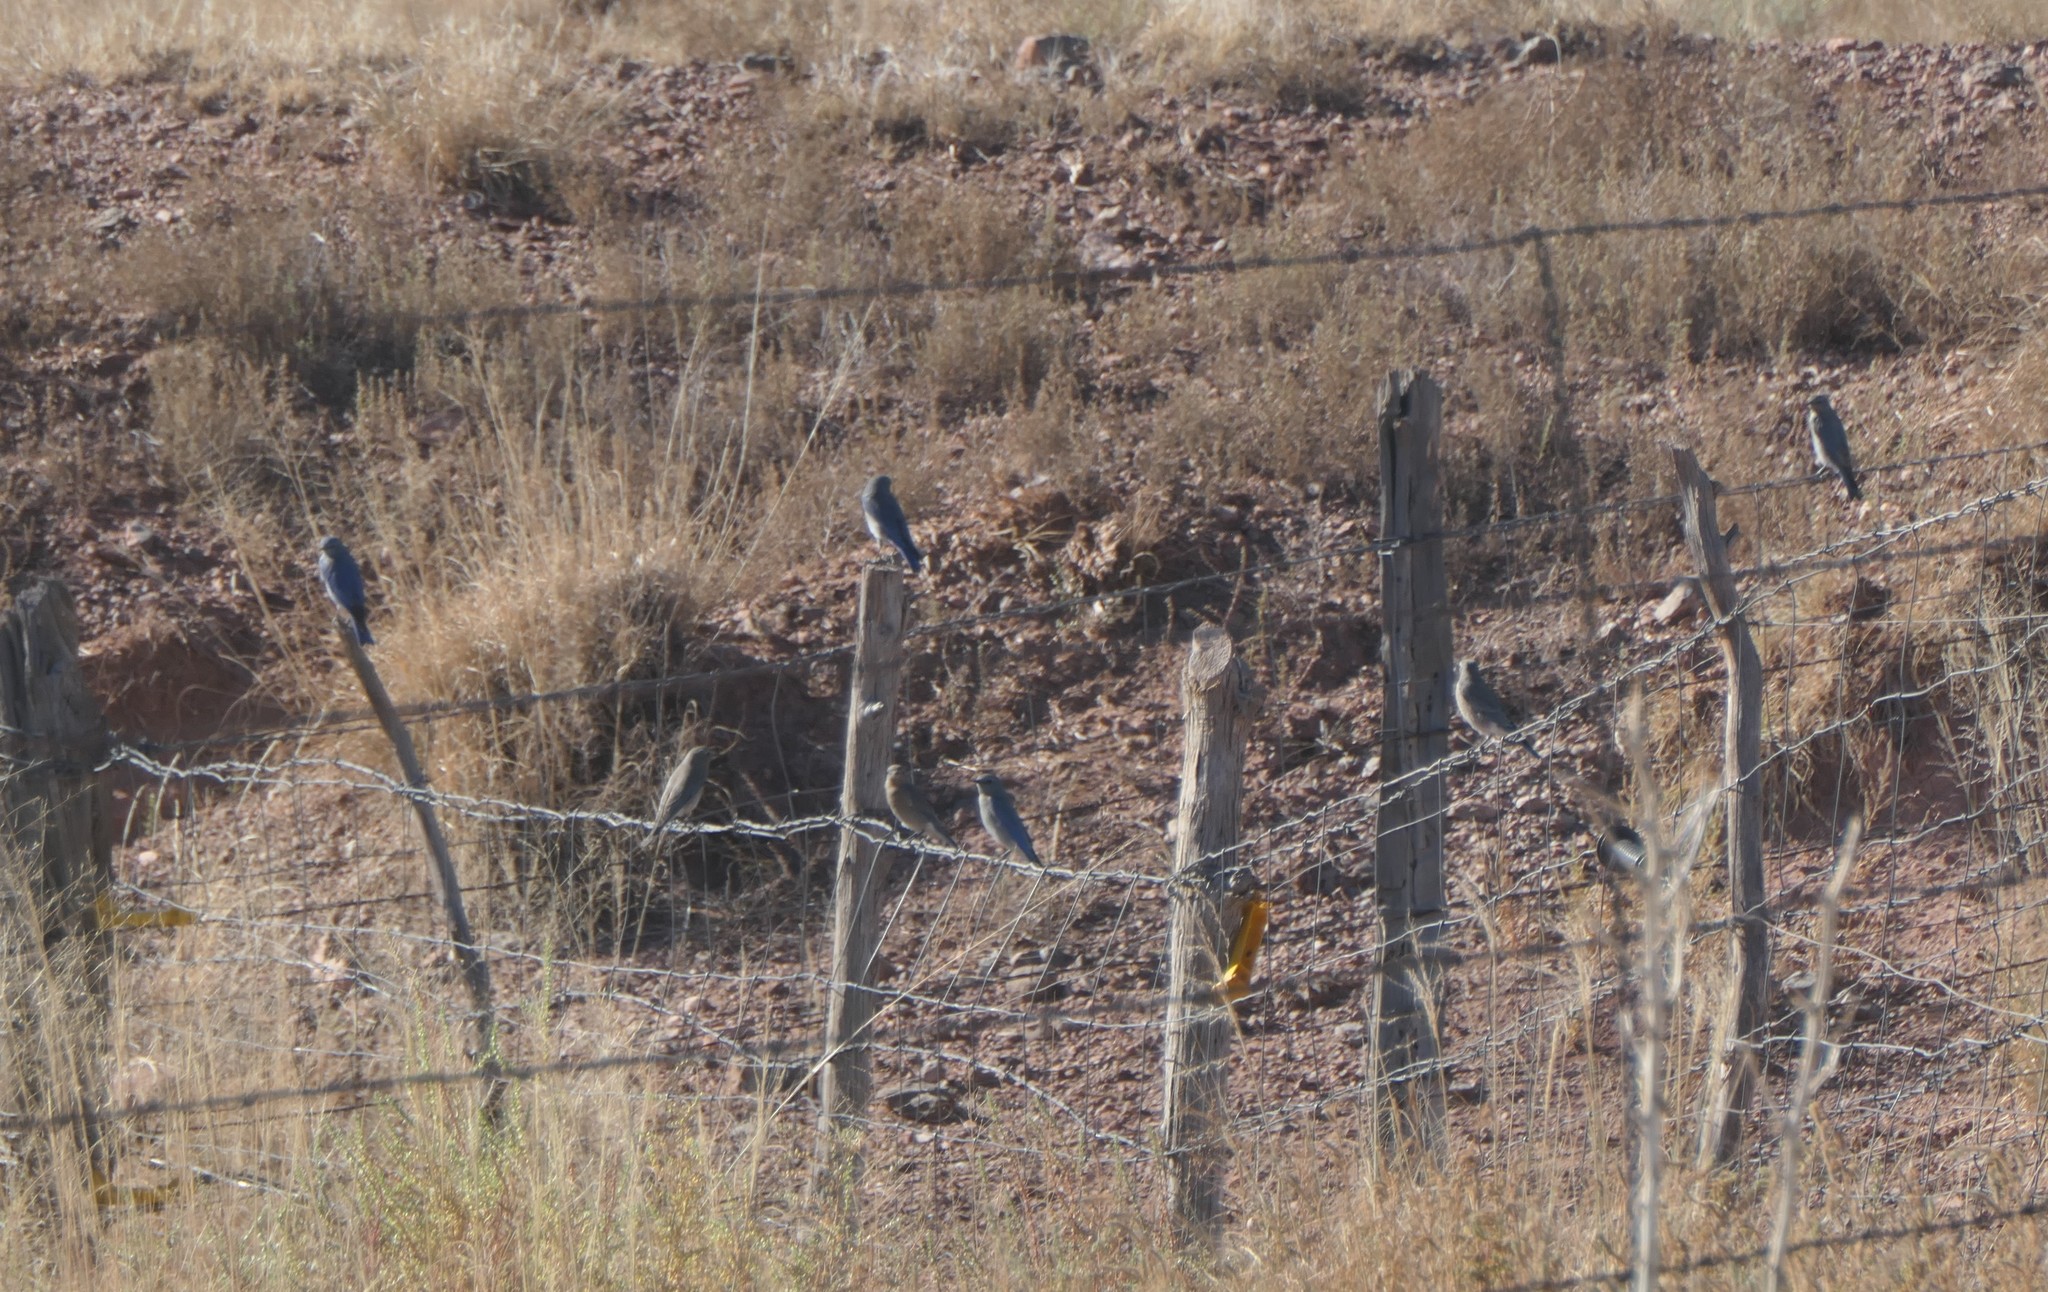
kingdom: Animalia
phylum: Chordata
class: Aves
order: Passeriformes
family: Turdidae
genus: Sialia
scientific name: Sialia currucoides
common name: Mountain bluebird
